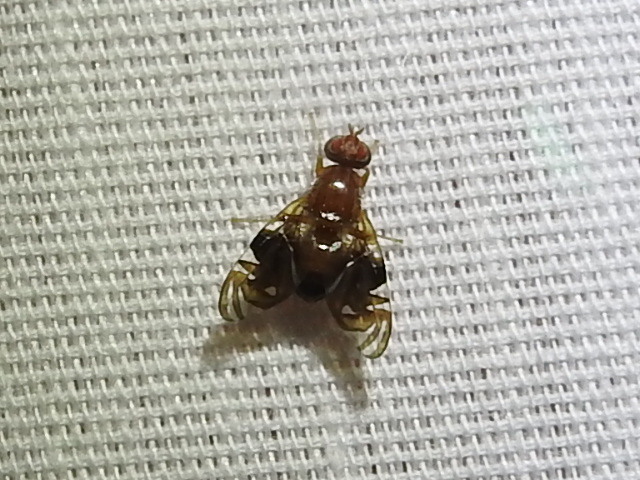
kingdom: Animalia
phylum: Arthropoda
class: Insecta
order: Diptera
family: Tephritidae
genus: Parastenopa
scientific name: Parastenopa limata
